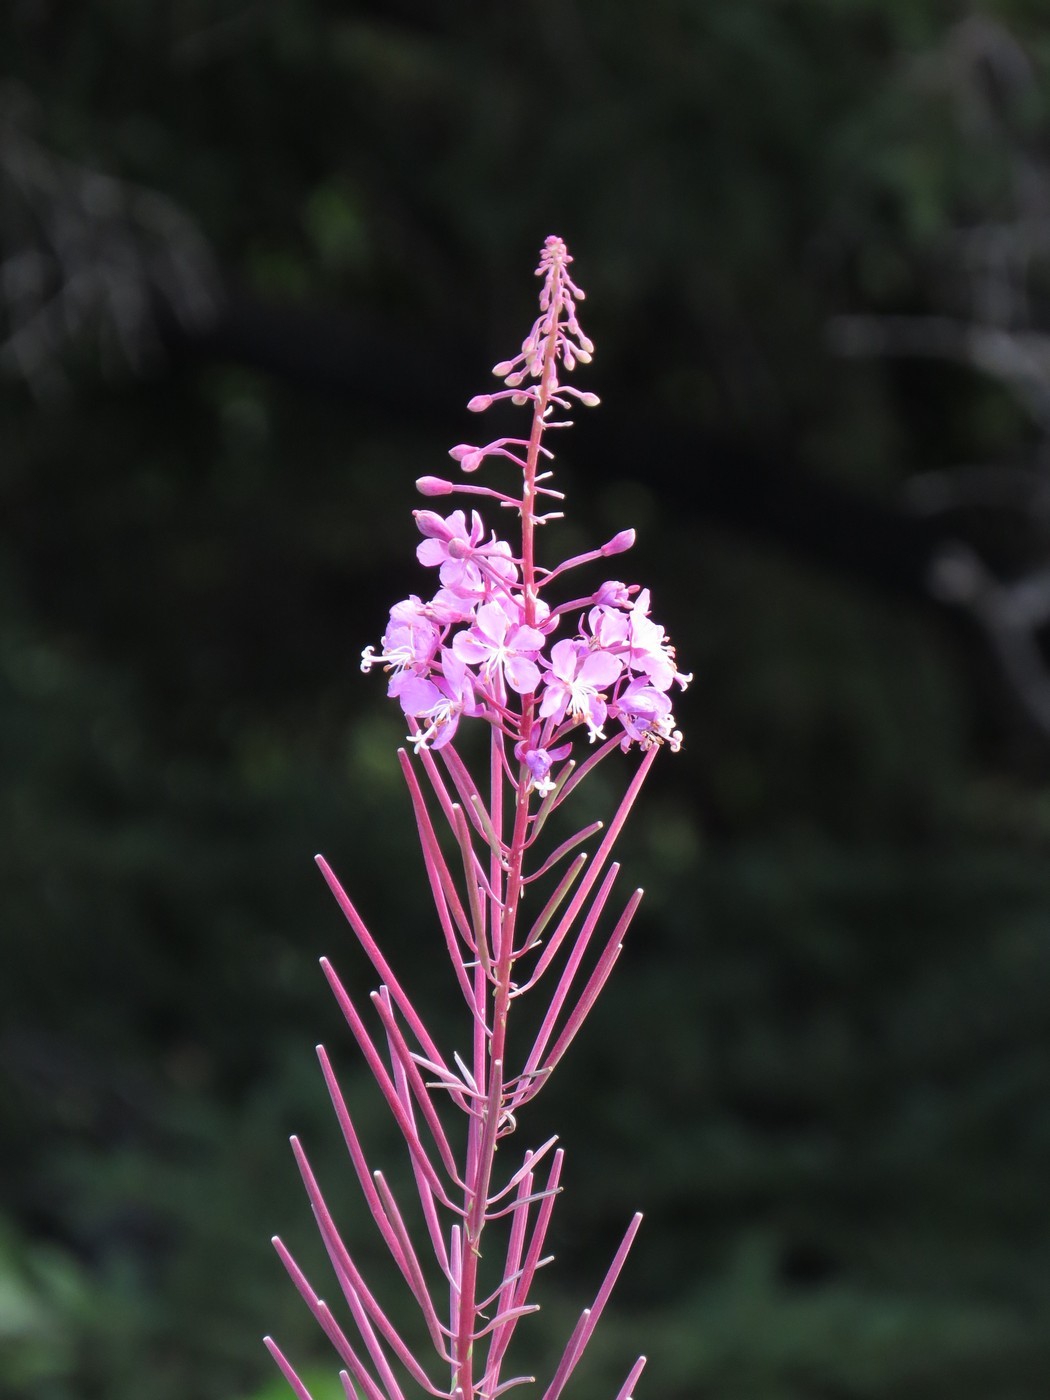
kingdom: Plantae
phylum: Tracheophyta
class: Magnoliopsida
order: Myrtales
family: Onagraceae
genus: Chamaenerion
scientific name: Chamaenerion angustifolium
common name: Fireweed
